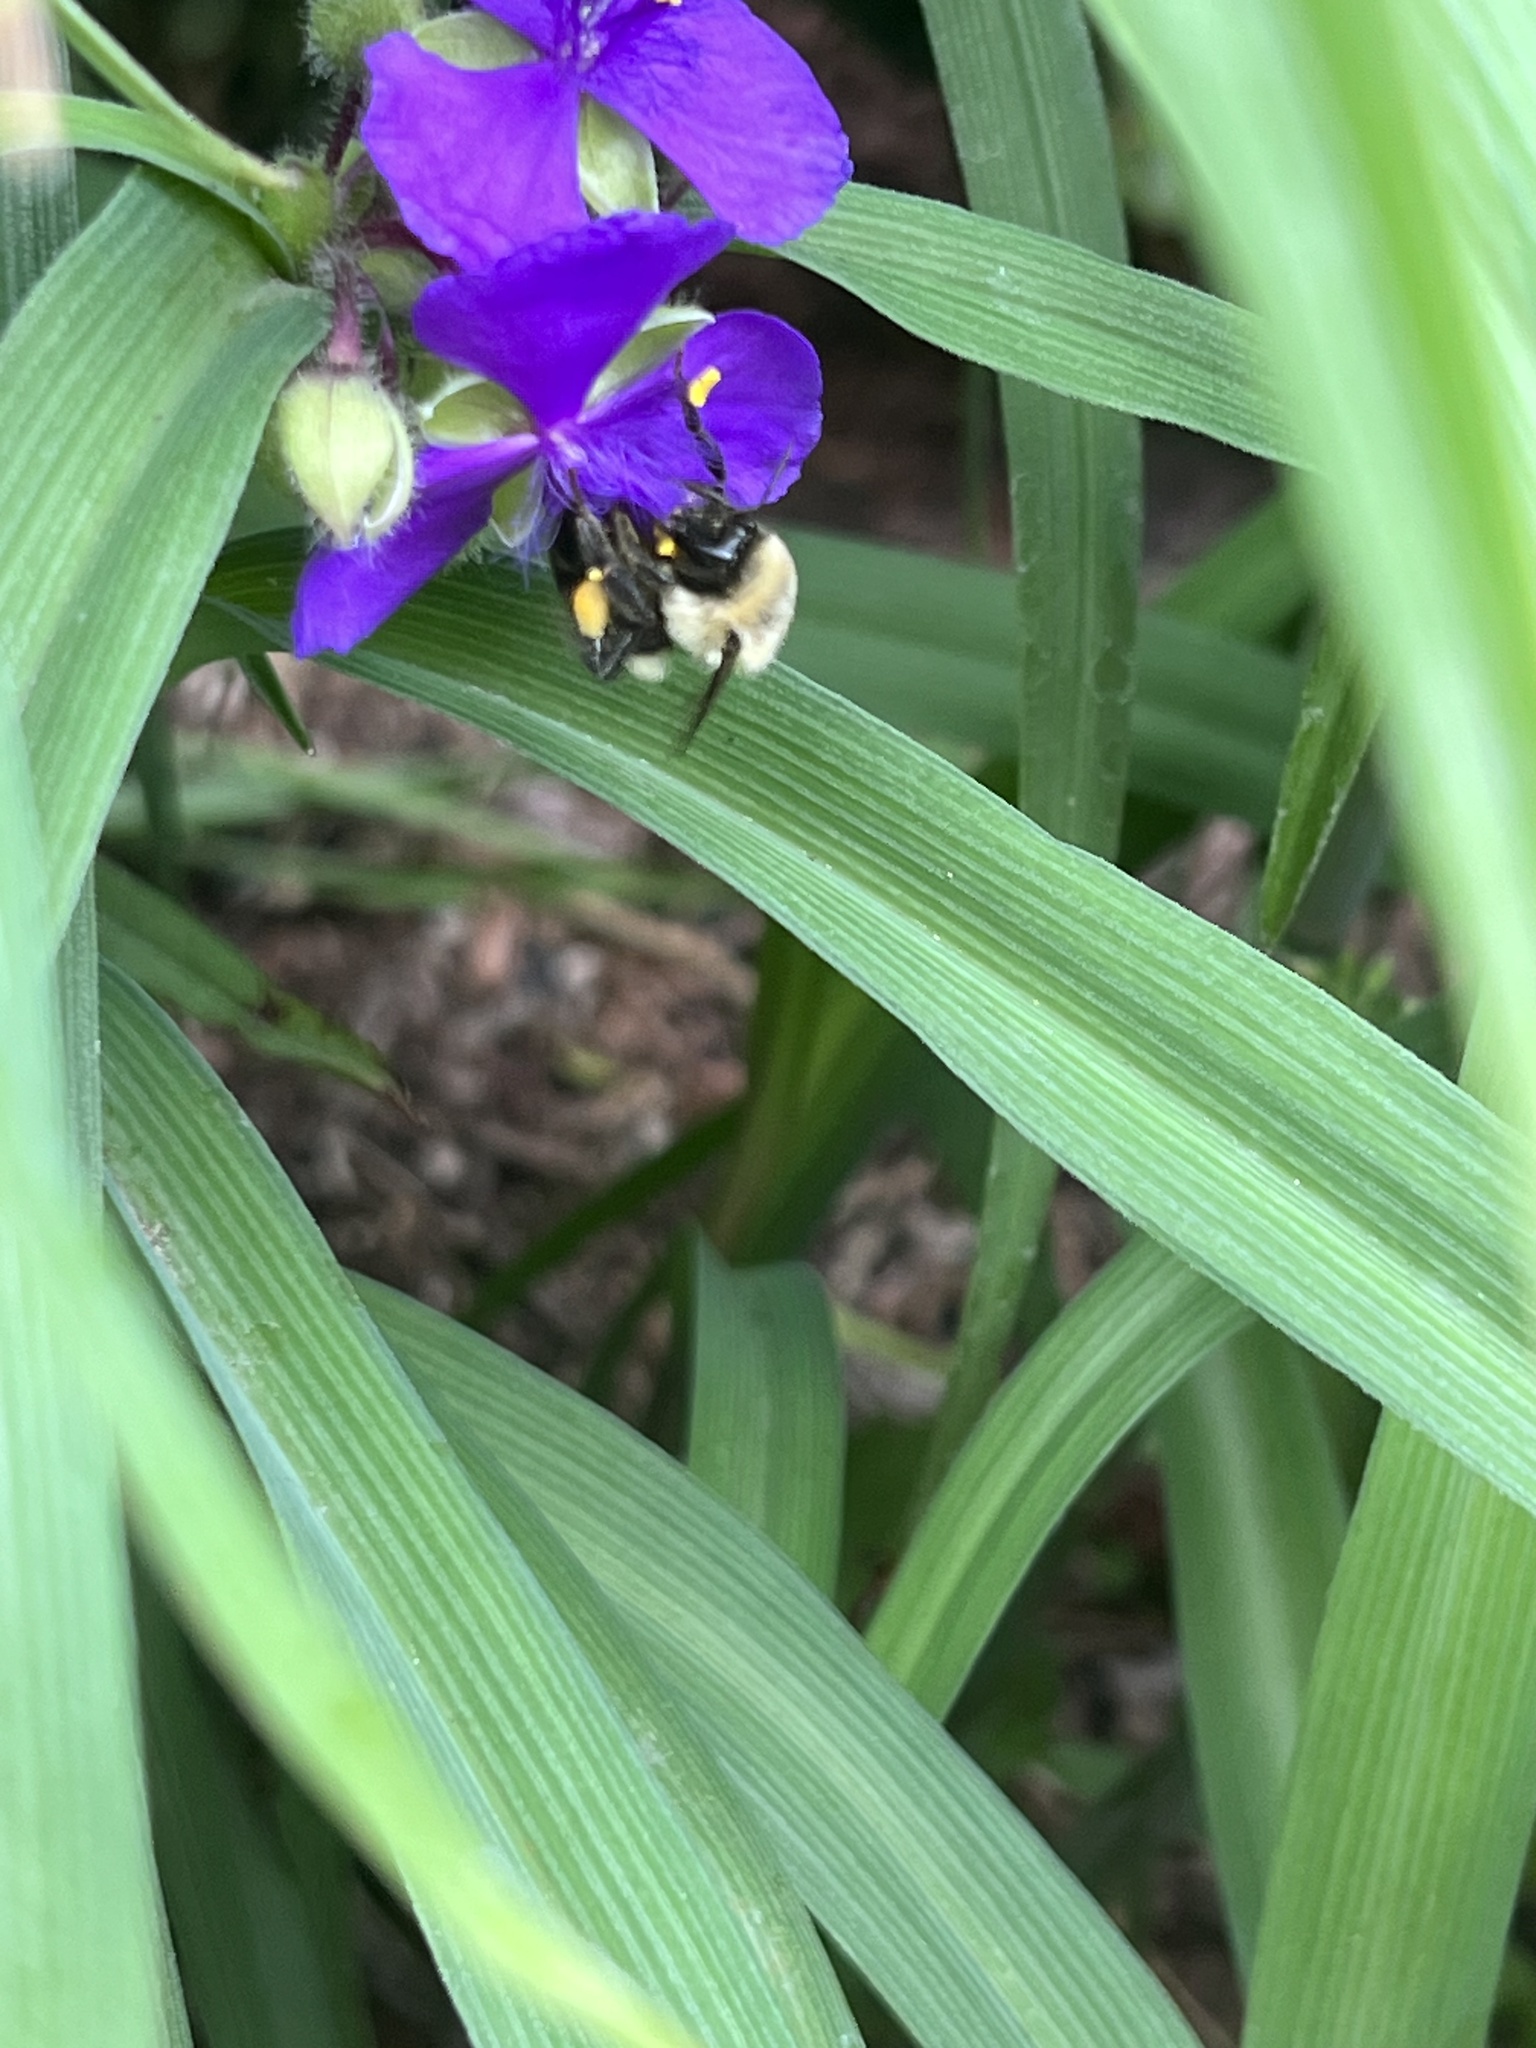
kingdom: Animalia
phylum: Arthropoda
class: Insecta
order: Hymenoptera
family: Apidae
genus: Bombus
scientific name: Bombus impatiens
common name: Common eastern bumble bee
